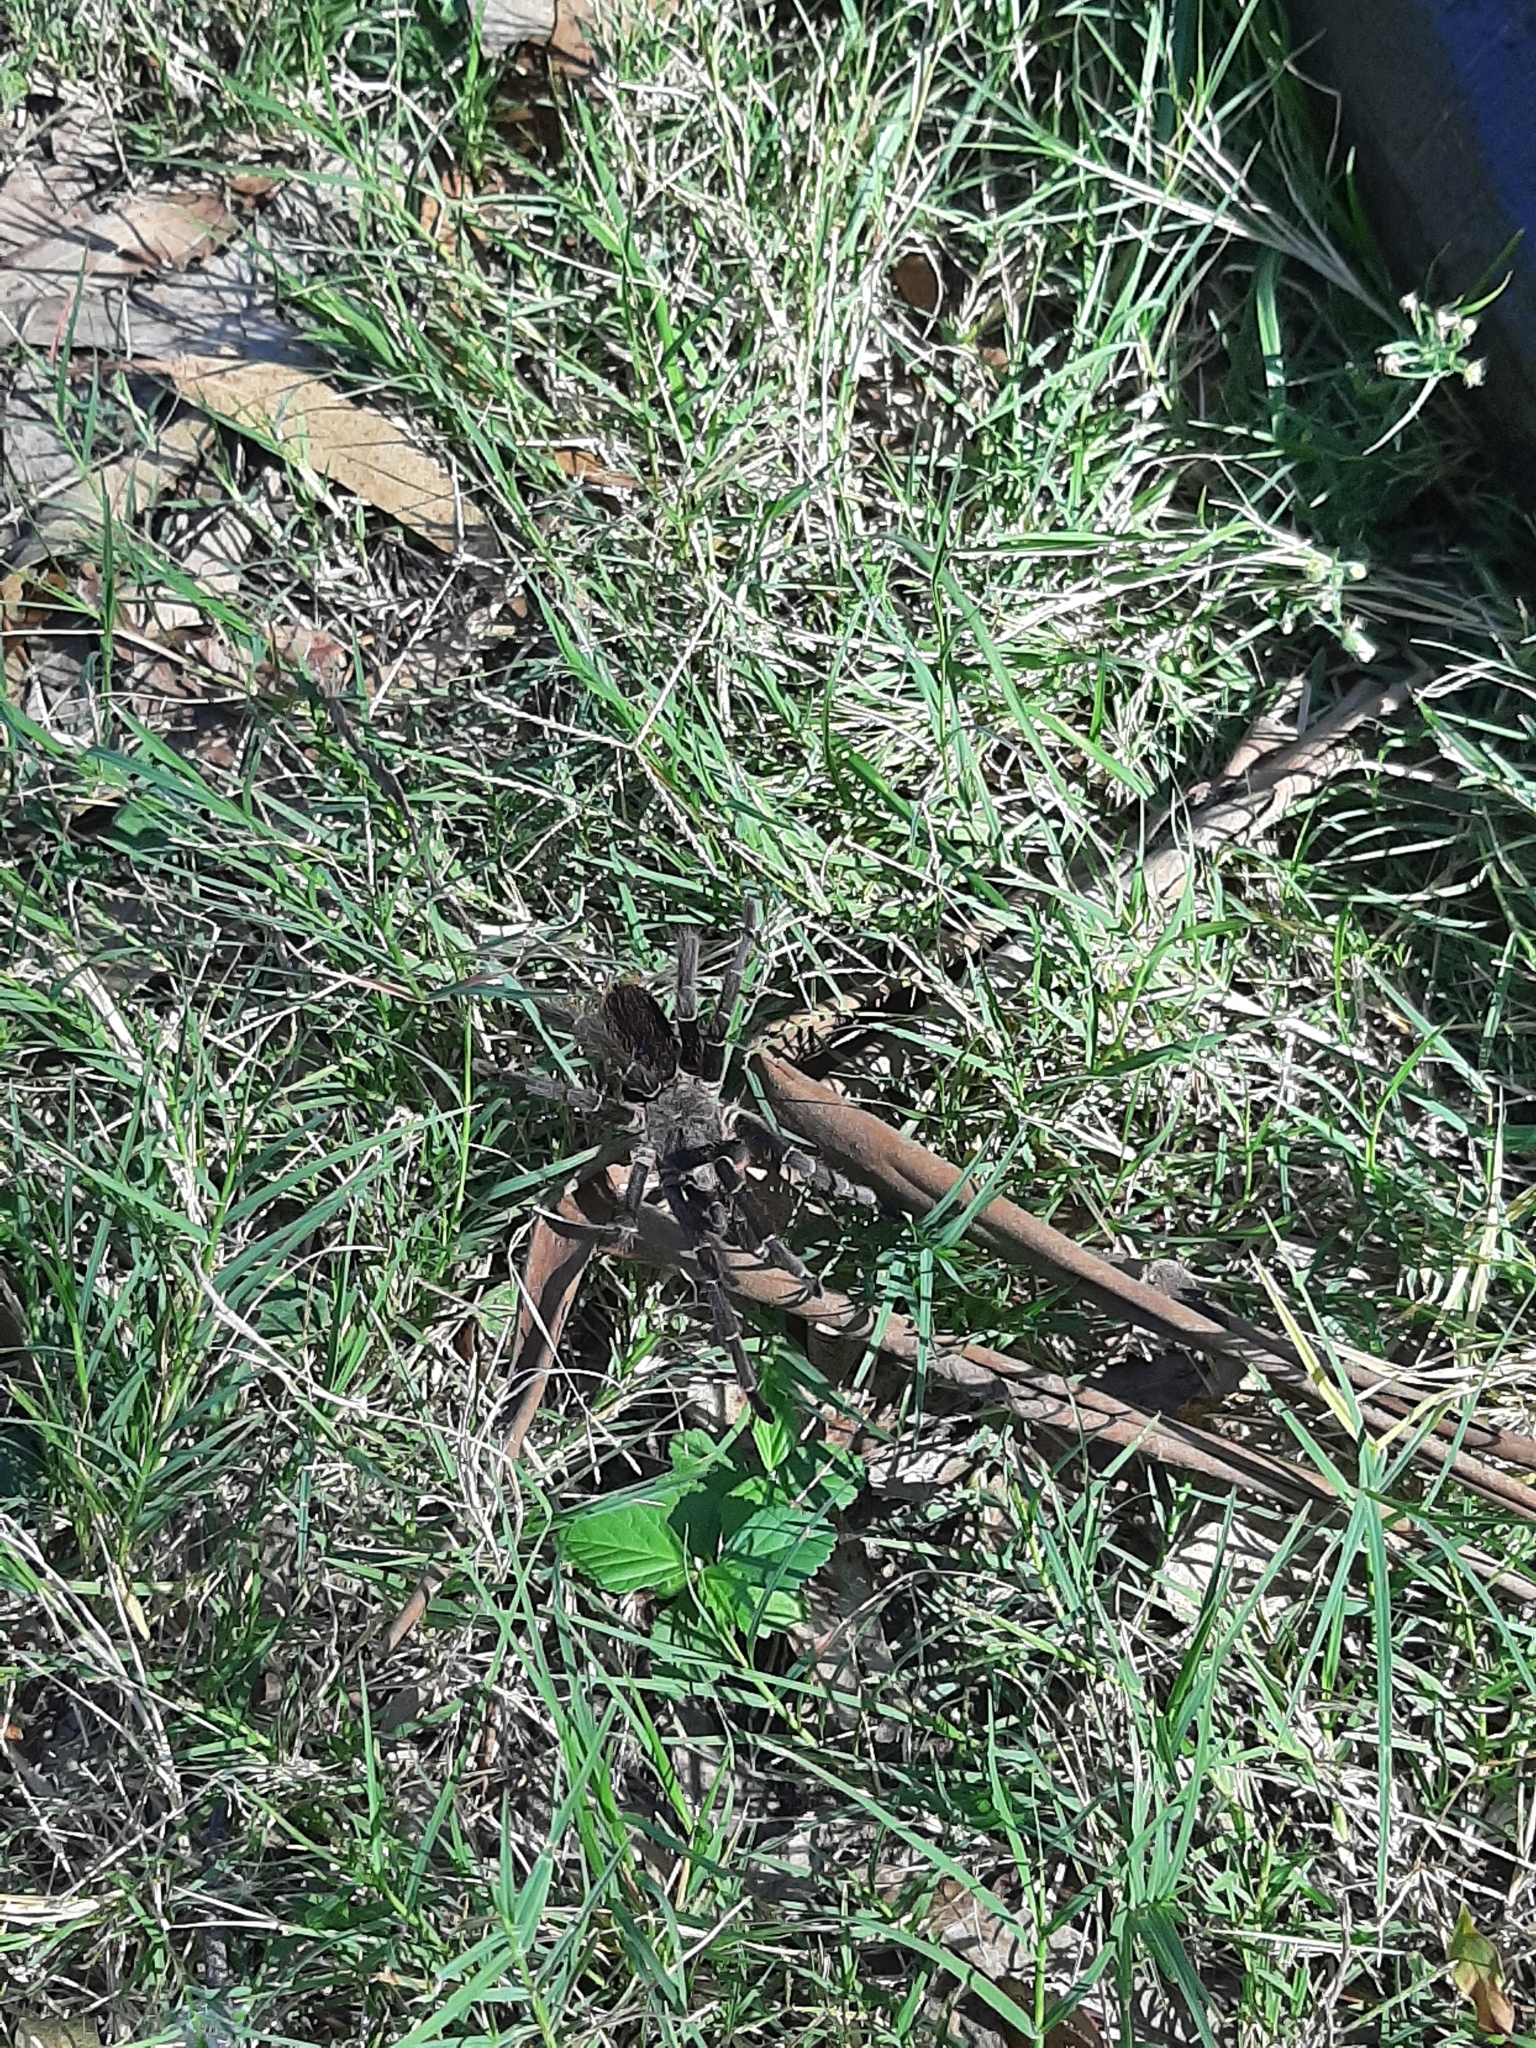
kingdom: Animalia
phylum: Arthropoda
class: Arachnida
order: Araneae
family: Theraphosidae
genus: Eupalaestrus
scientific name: Eupalaestrus weijenberghi
